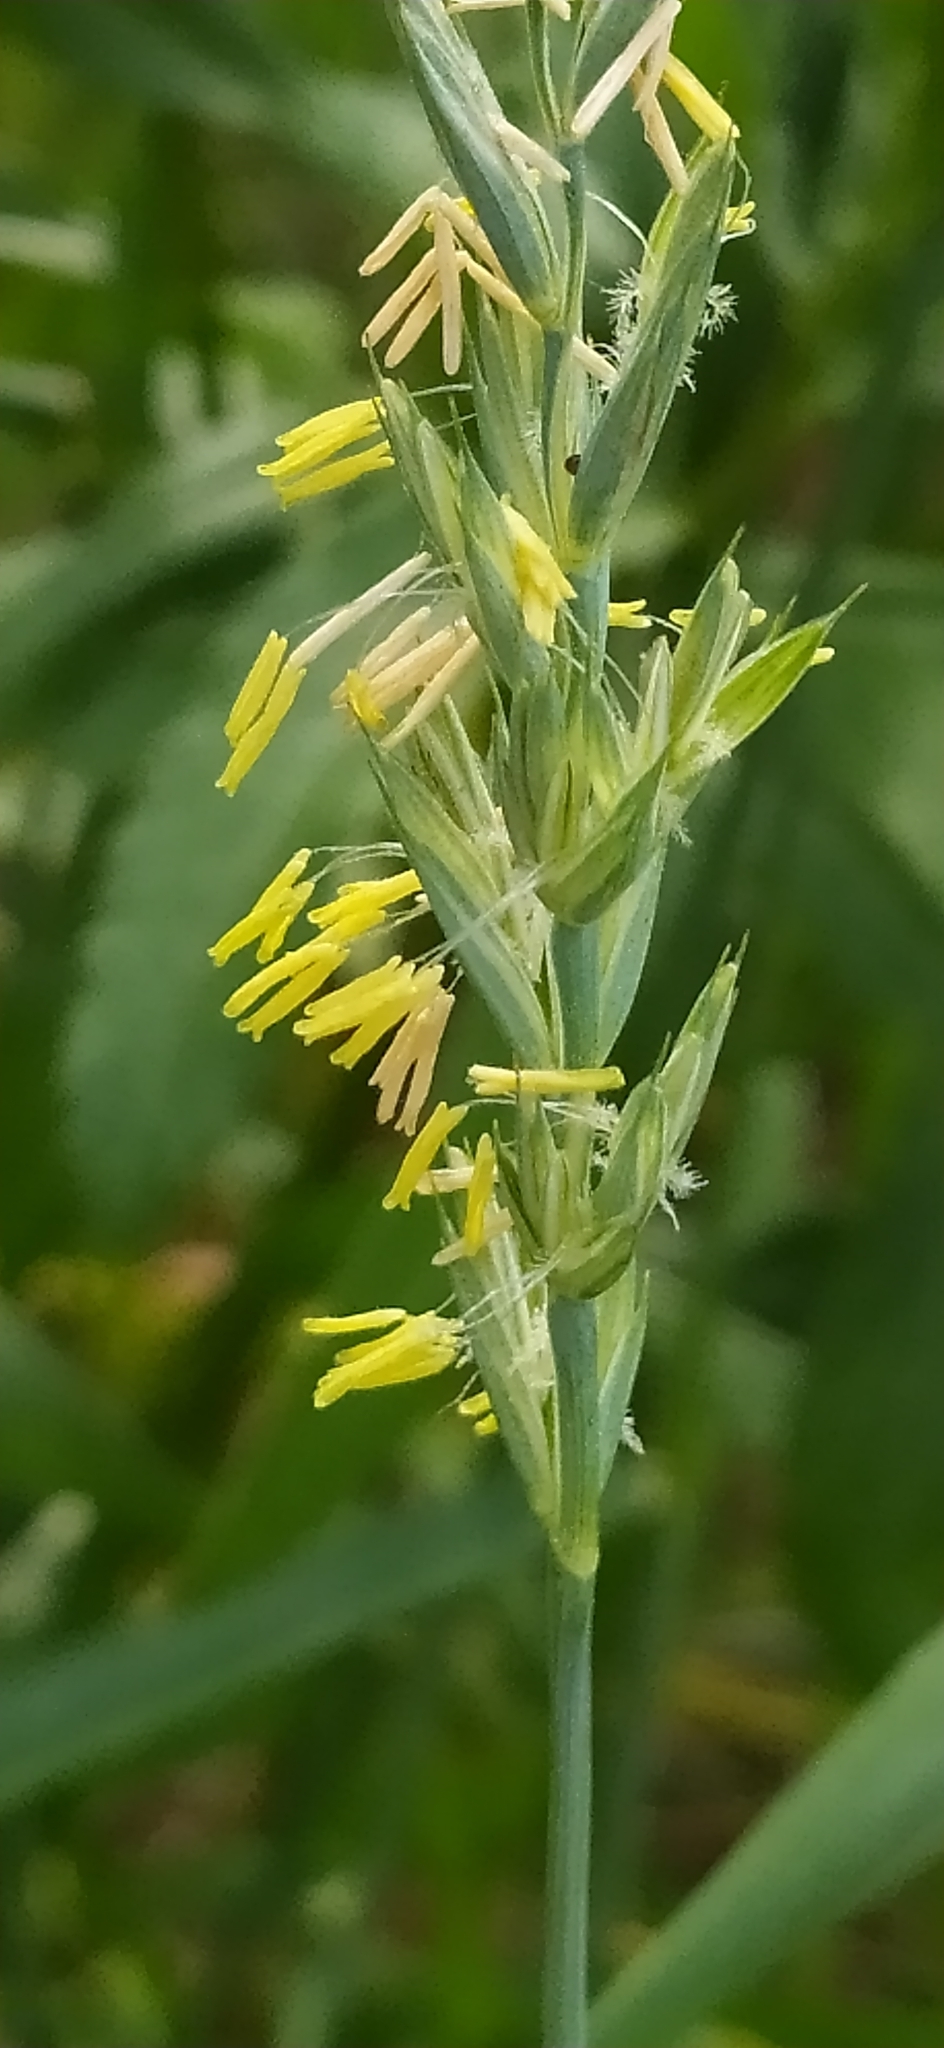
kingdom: Plantae
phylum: Tracheophyta
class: Liliopsida
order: Poales
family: Poaceae
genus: Elymus
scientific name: Elymus repens
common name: Quackgrass
